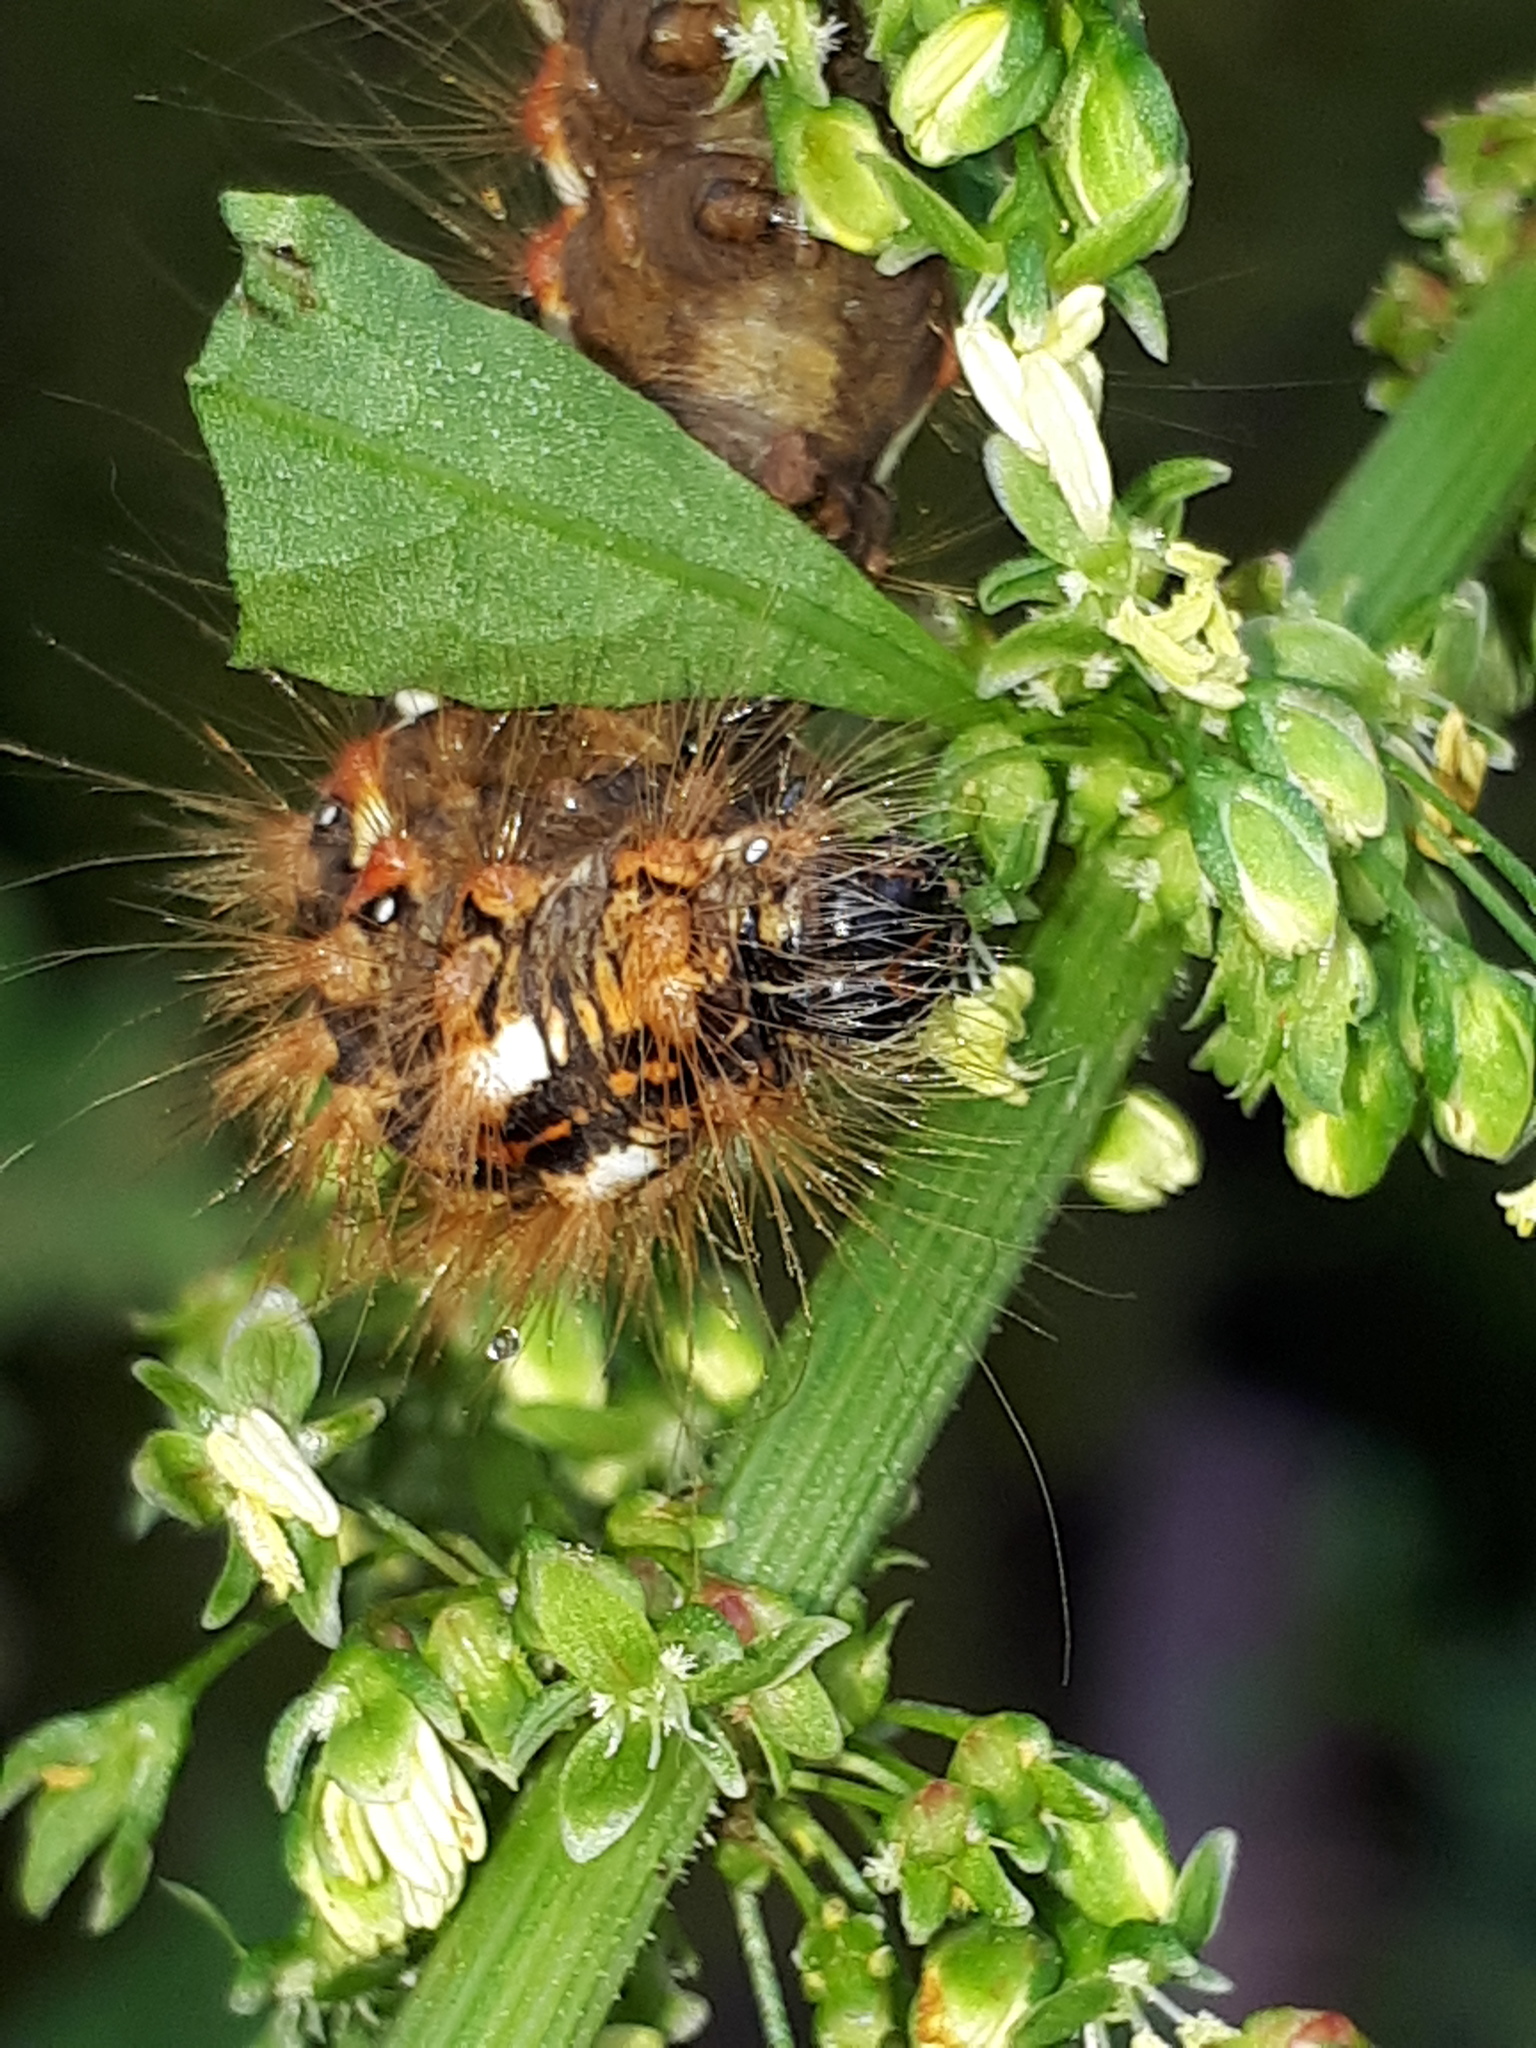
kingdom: Animalia
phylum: Arthropoda
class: Insecta
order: Lepidoptera
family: Noctuidae
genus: Acronicta
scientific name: Acronicta rumicis
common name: Knot grass
